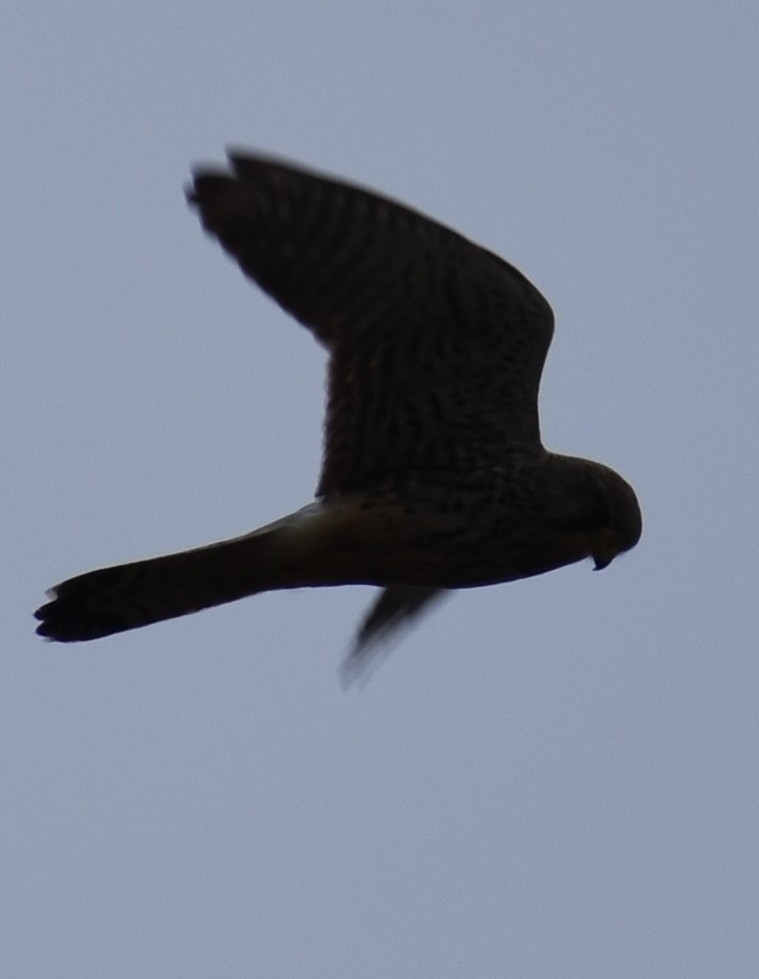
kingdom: Animalia
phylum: Chordata
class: Aves
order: Falconiformes
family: Falconidae
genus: Falco
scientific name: Falco tinnunculus
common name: Common kestrel
